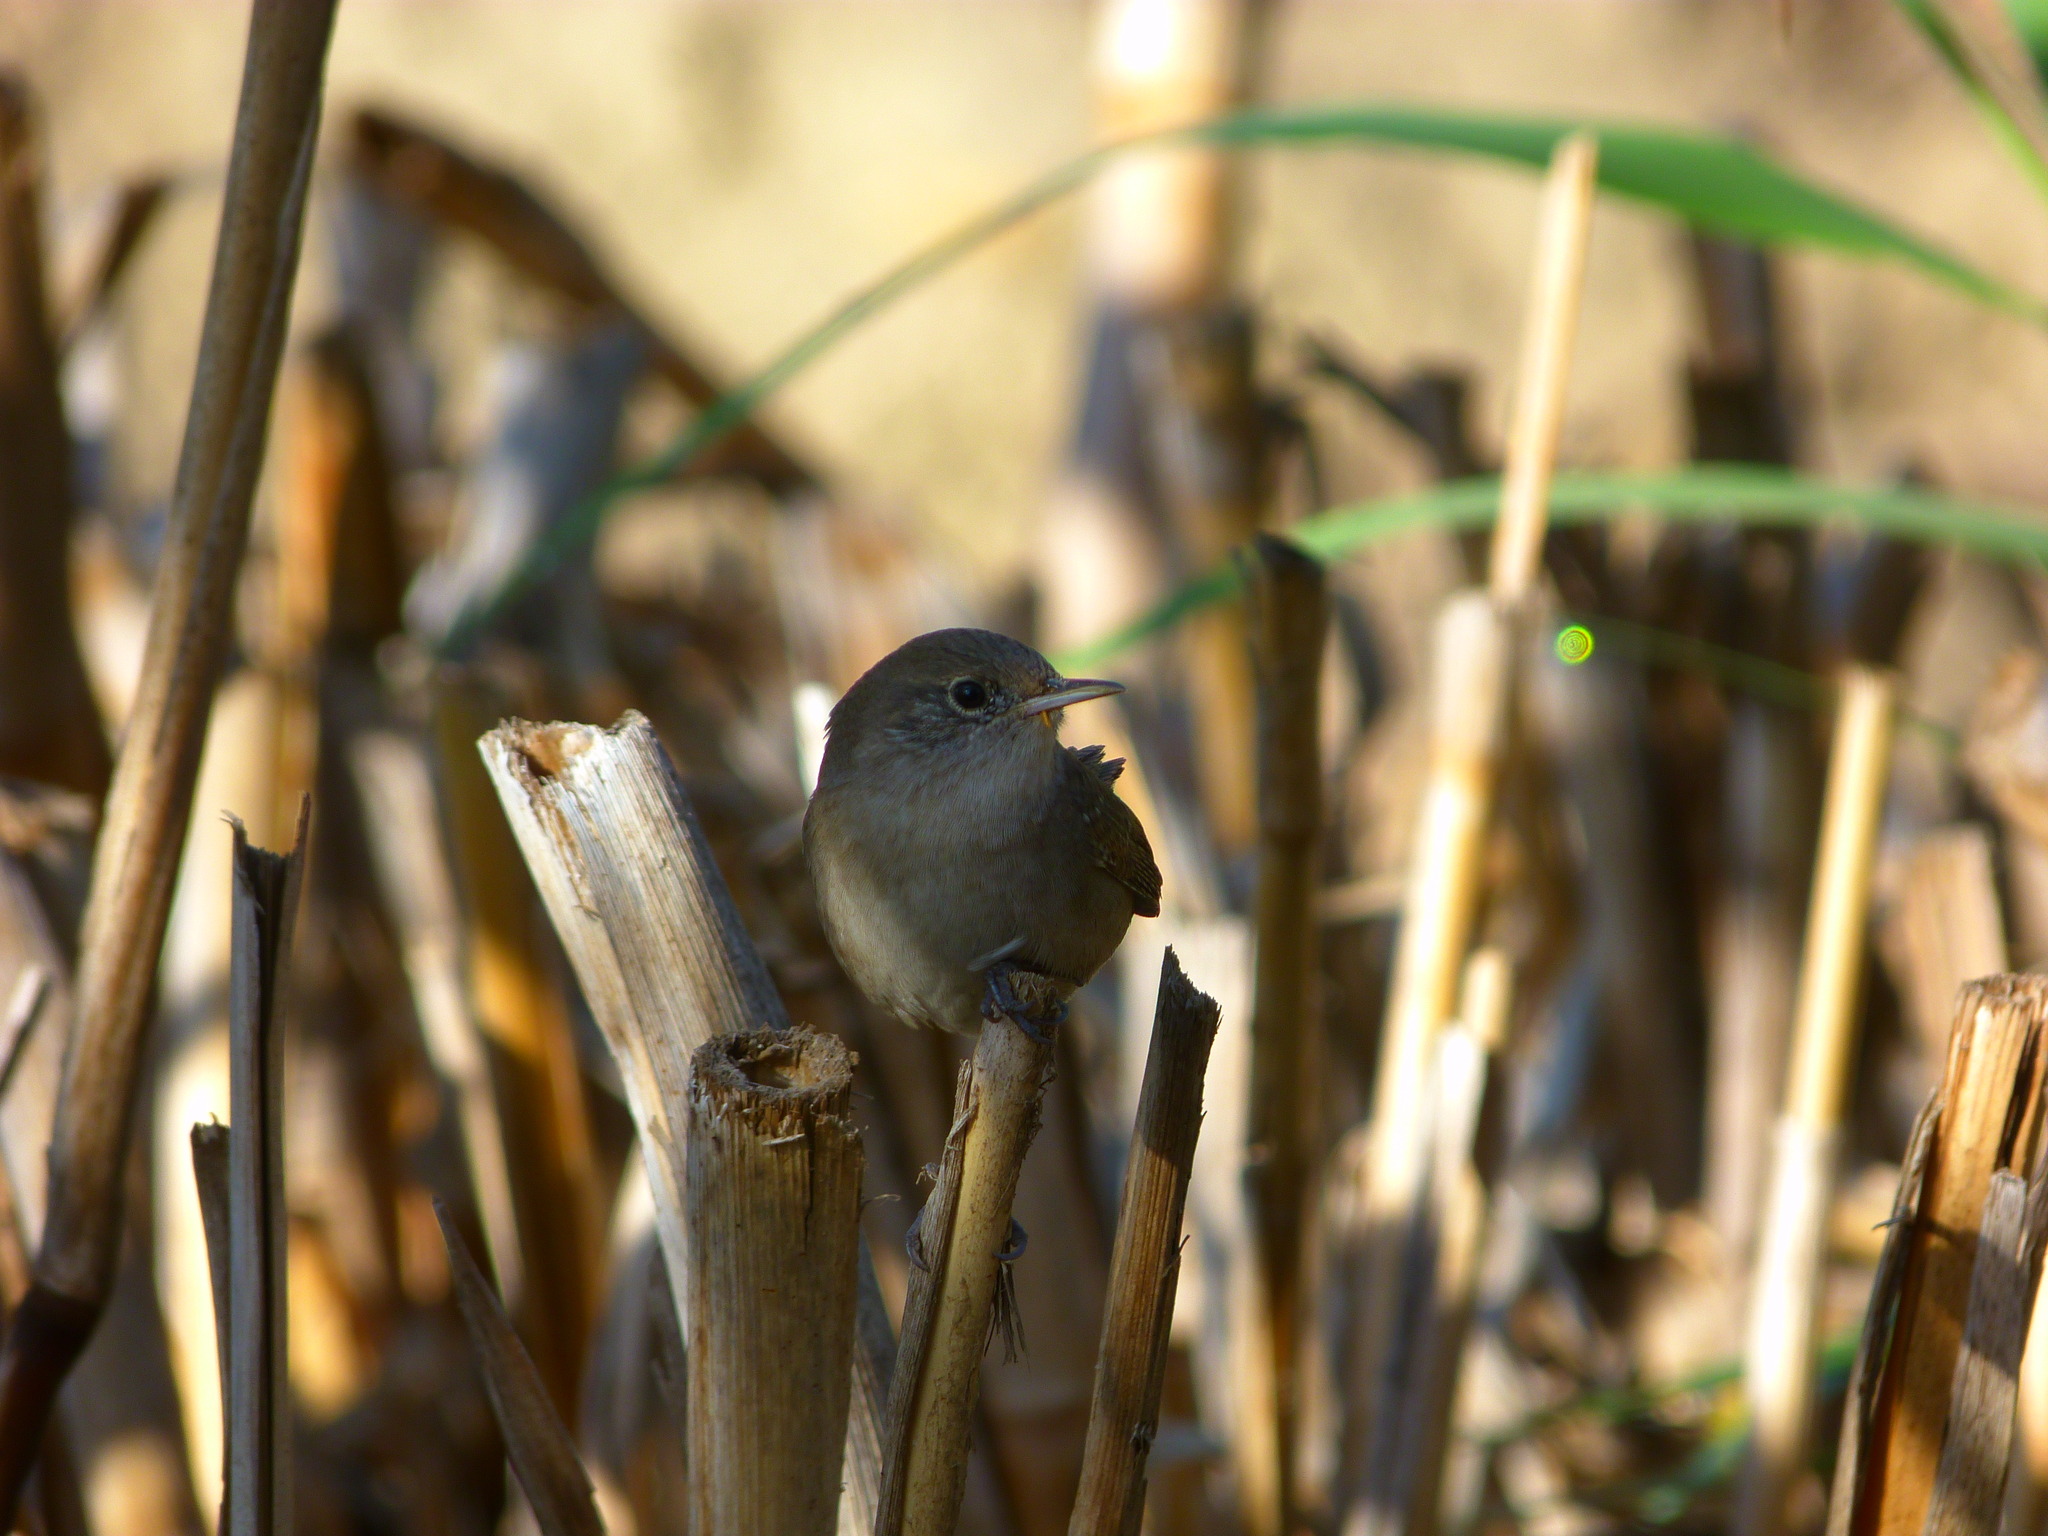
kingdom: Animalia
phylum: Chordata
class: Aves
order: Passeriformes
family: Troglodytidae
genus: Troglodytes
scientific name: Troglodytes aedon
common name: House wren
